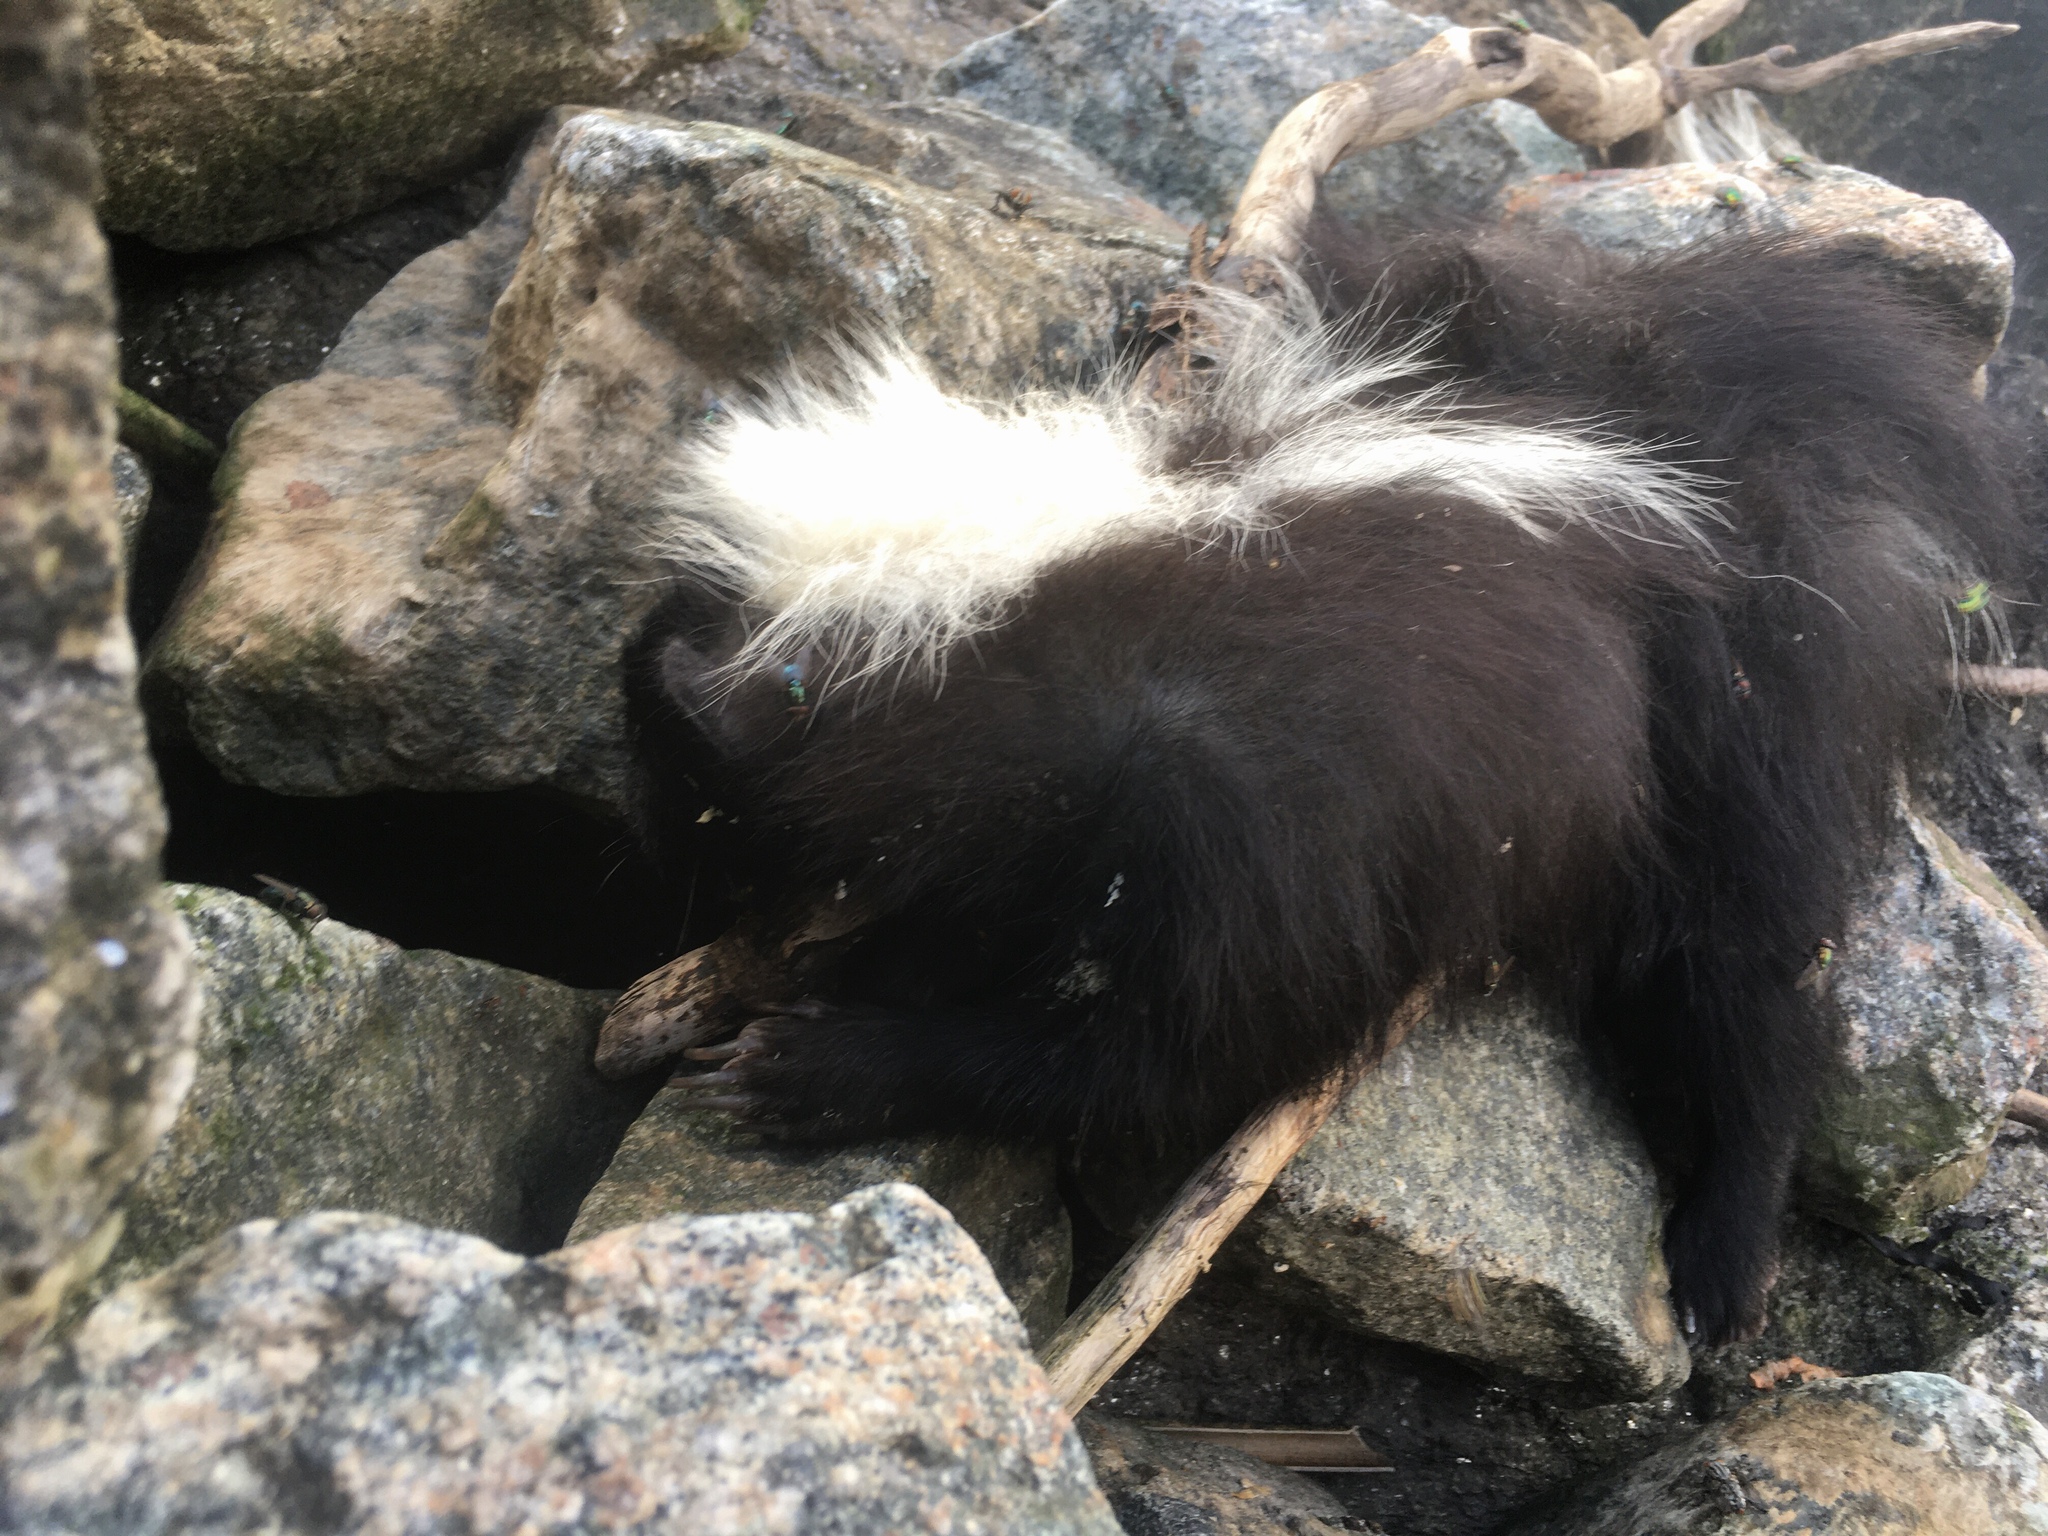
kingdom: Animalia
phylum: Chordata
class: Mammalia
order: Carnivora
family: Mephitidae
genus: Mephitis
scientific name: Mephitis mephitis
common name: Striped skunk
